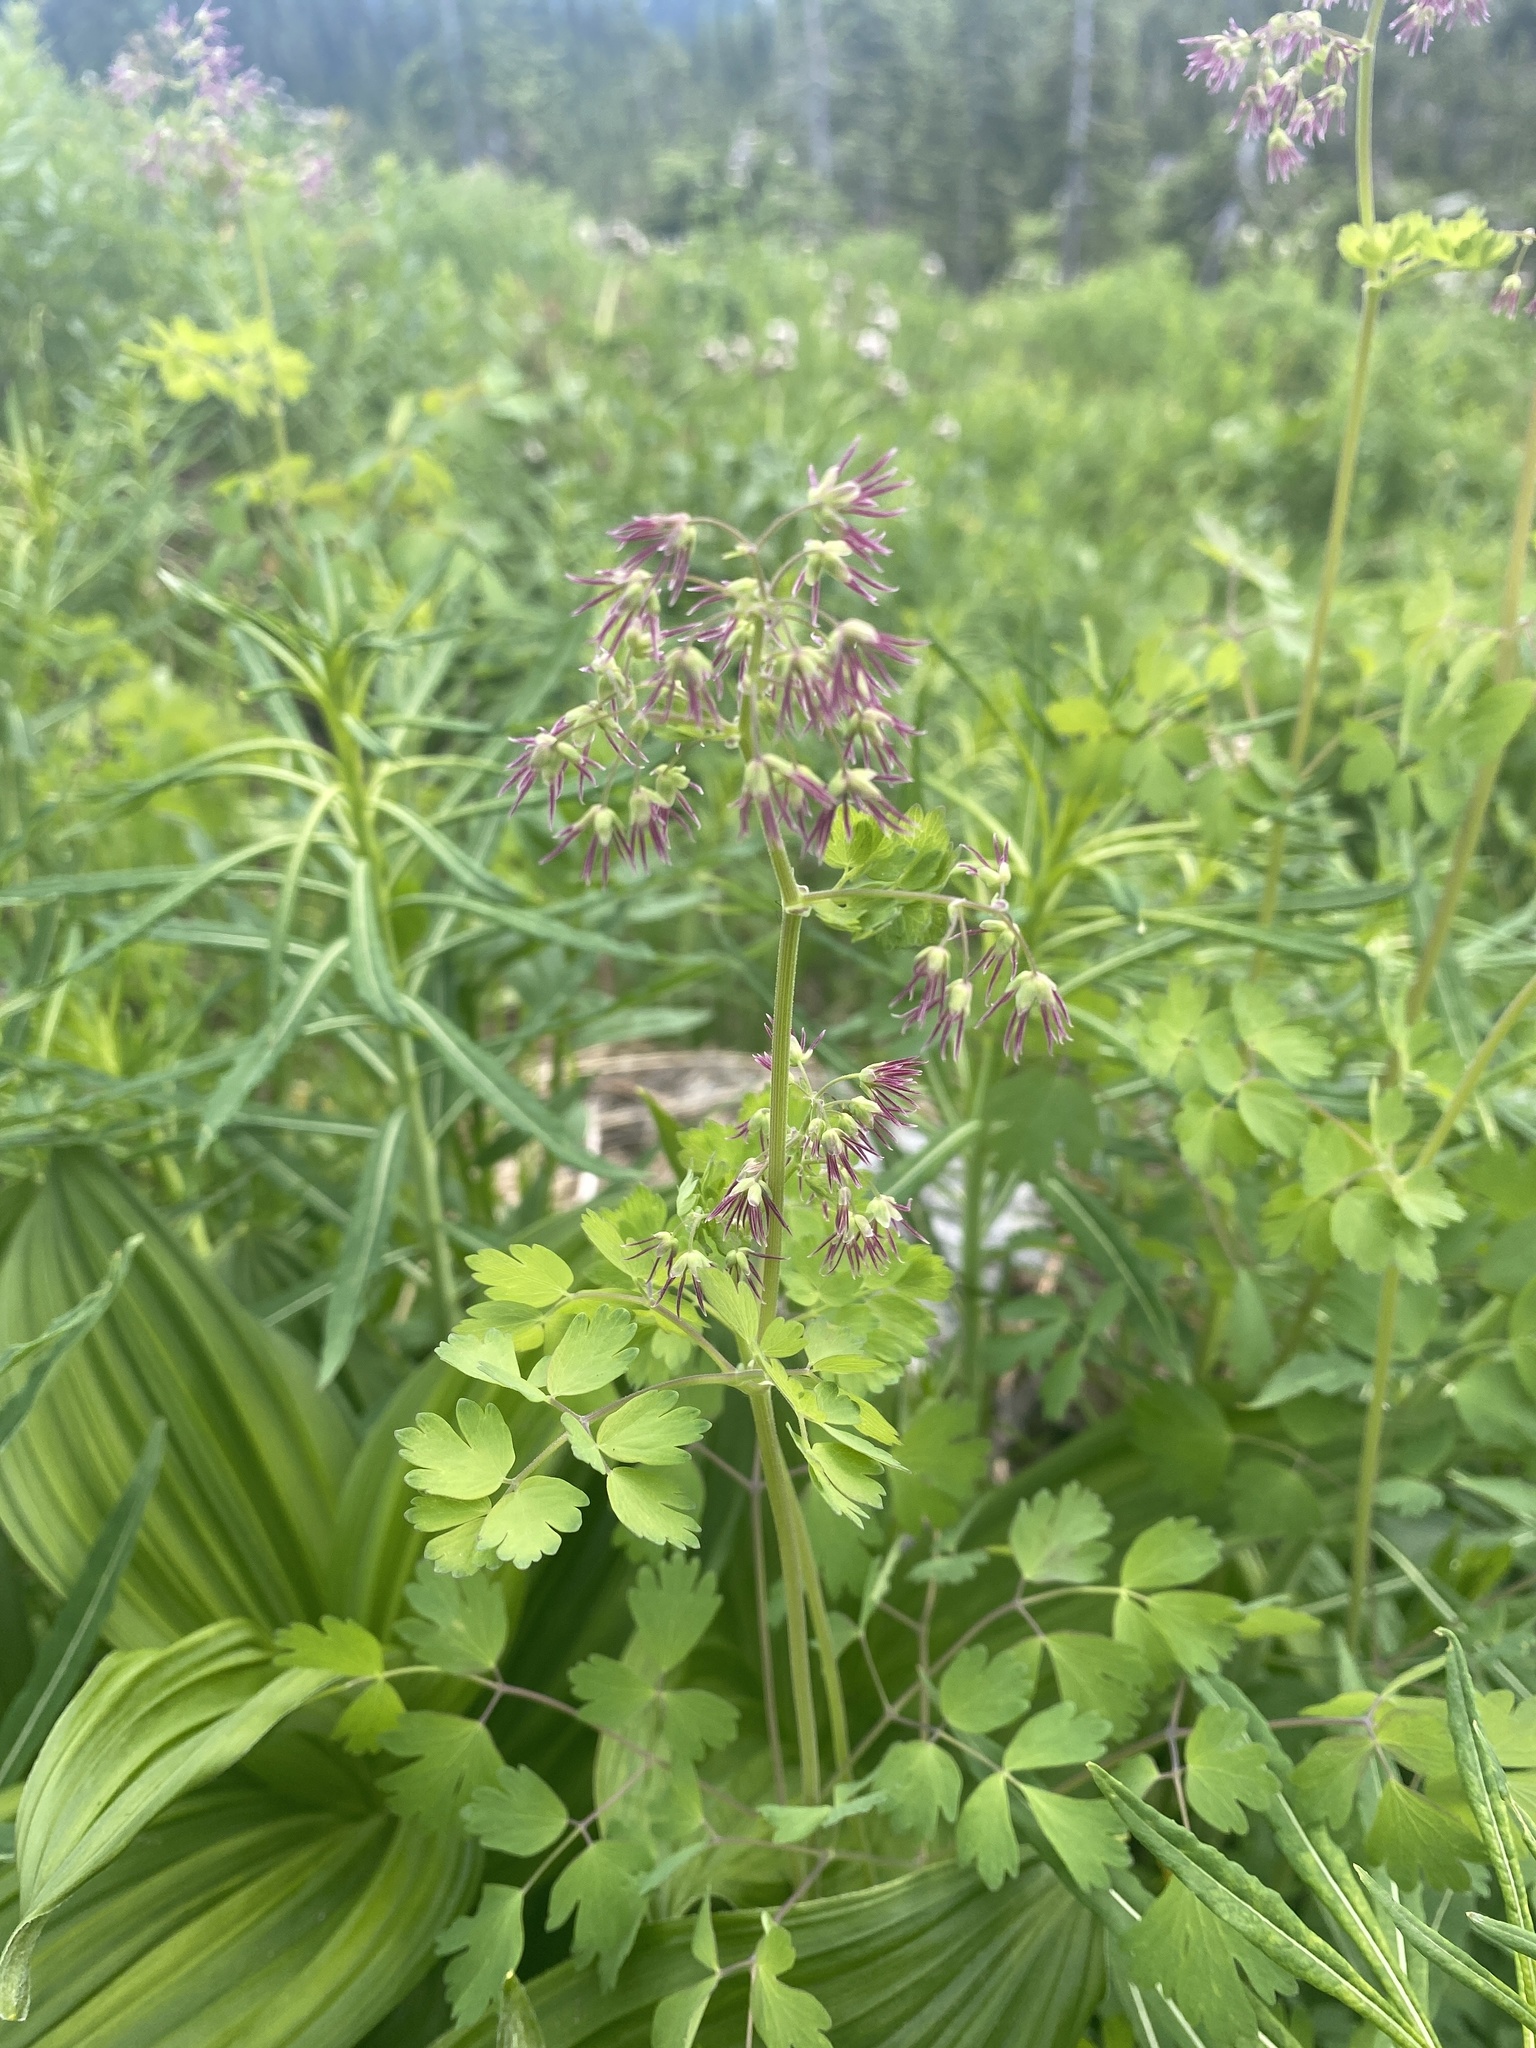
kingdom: Plantae
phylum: Tracheophyta
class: Magnoliopsida
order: Ranunculales
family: Ranunculaceae
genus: Thalictrum
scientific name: Thalictrum occidentale
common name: Western meadow-rue
